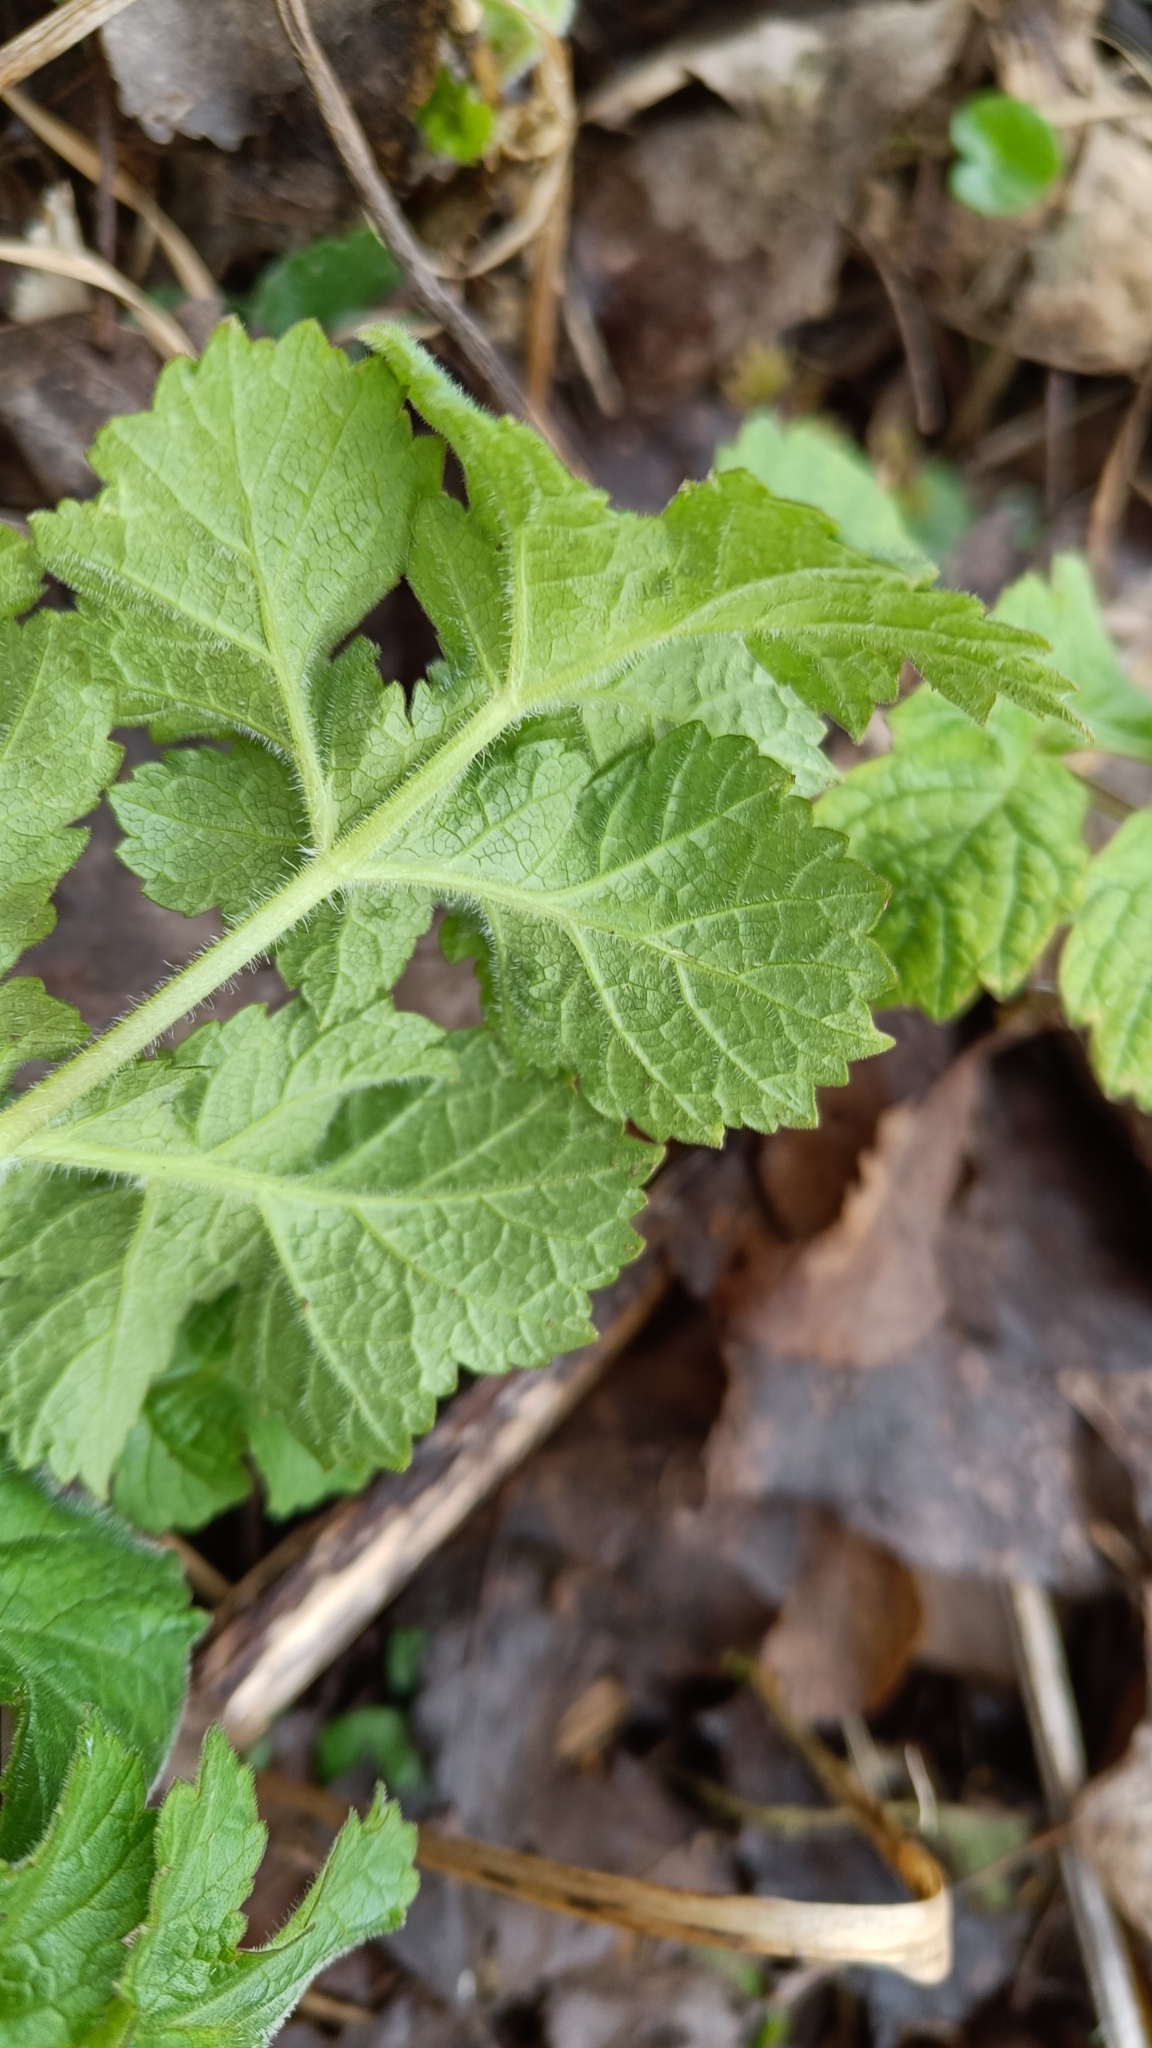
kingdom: Plantae
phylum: Tracheophyta
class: Magnoliopsida
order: Apiales
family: Apiaceae
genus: Heracleum
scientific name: Heracleum sphondylium
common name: Hogweed
